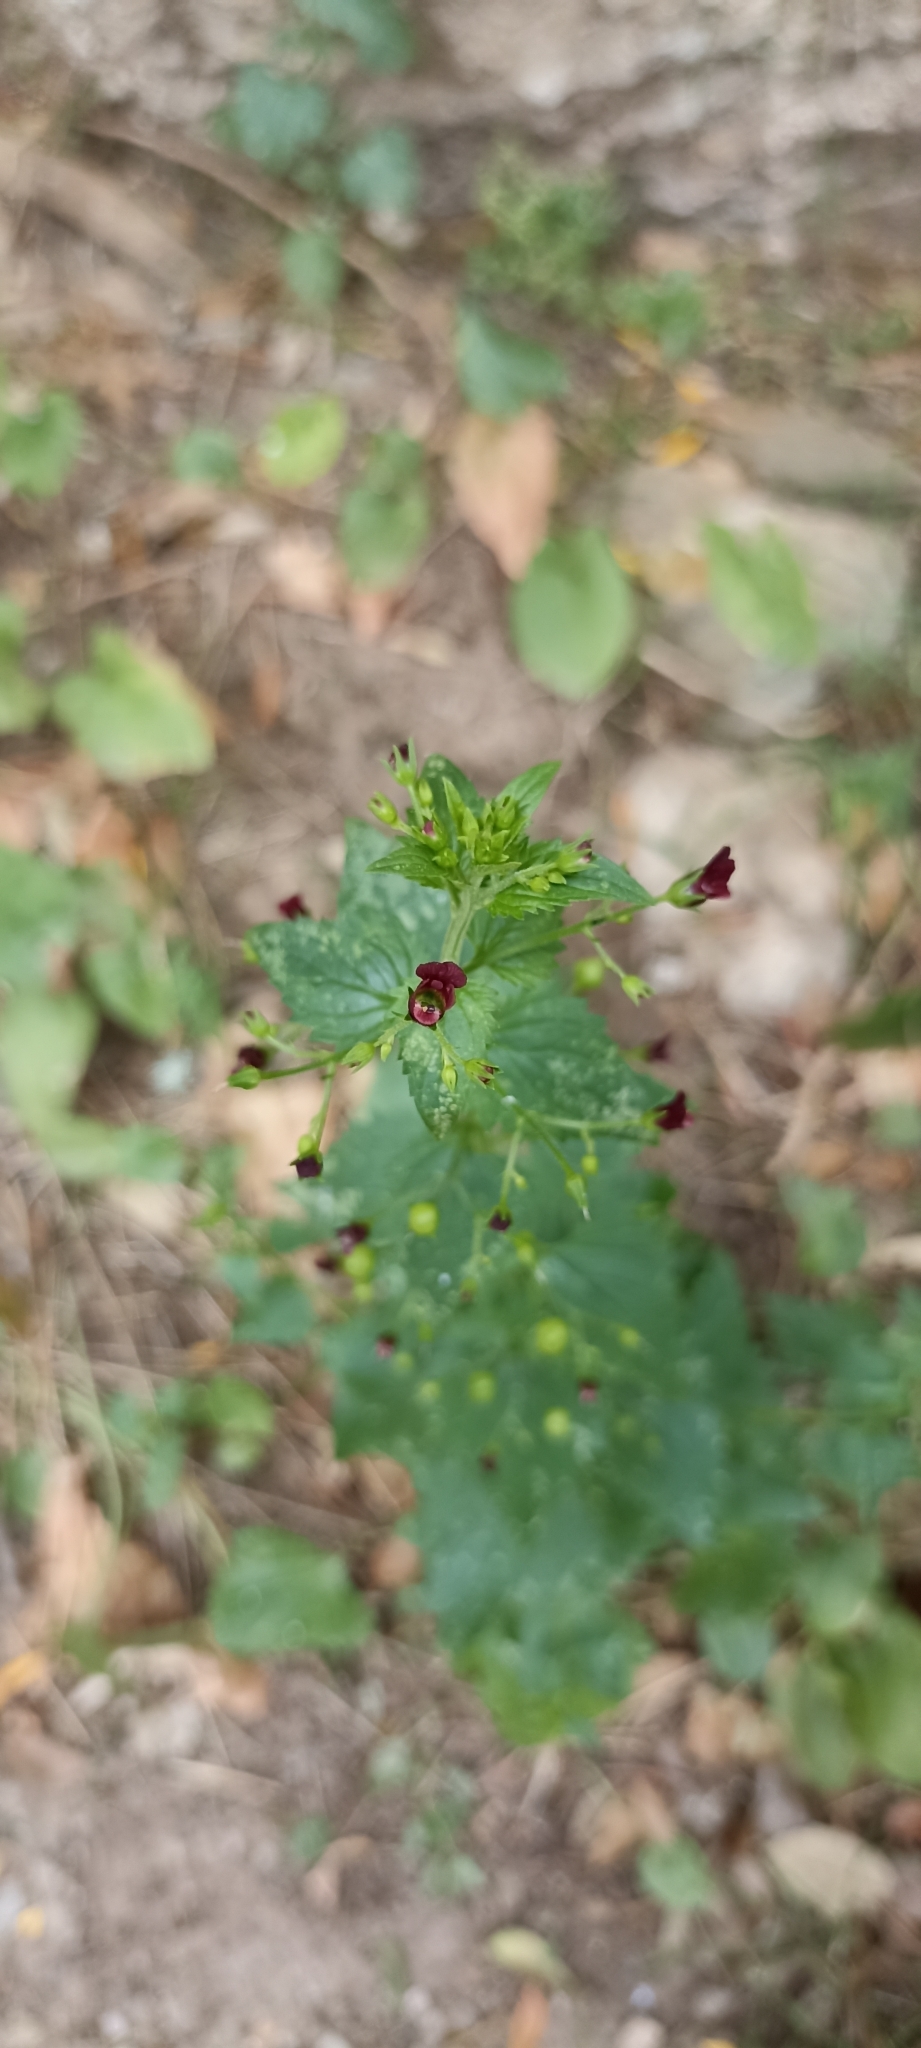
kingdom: Plantae
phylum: Tracheophyta
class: Magnoliopsida
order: Lamiales
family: Scrophulariaceae
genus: Scrophularia
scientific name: Scrophularia peregrina
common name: Mediterranean figwort
